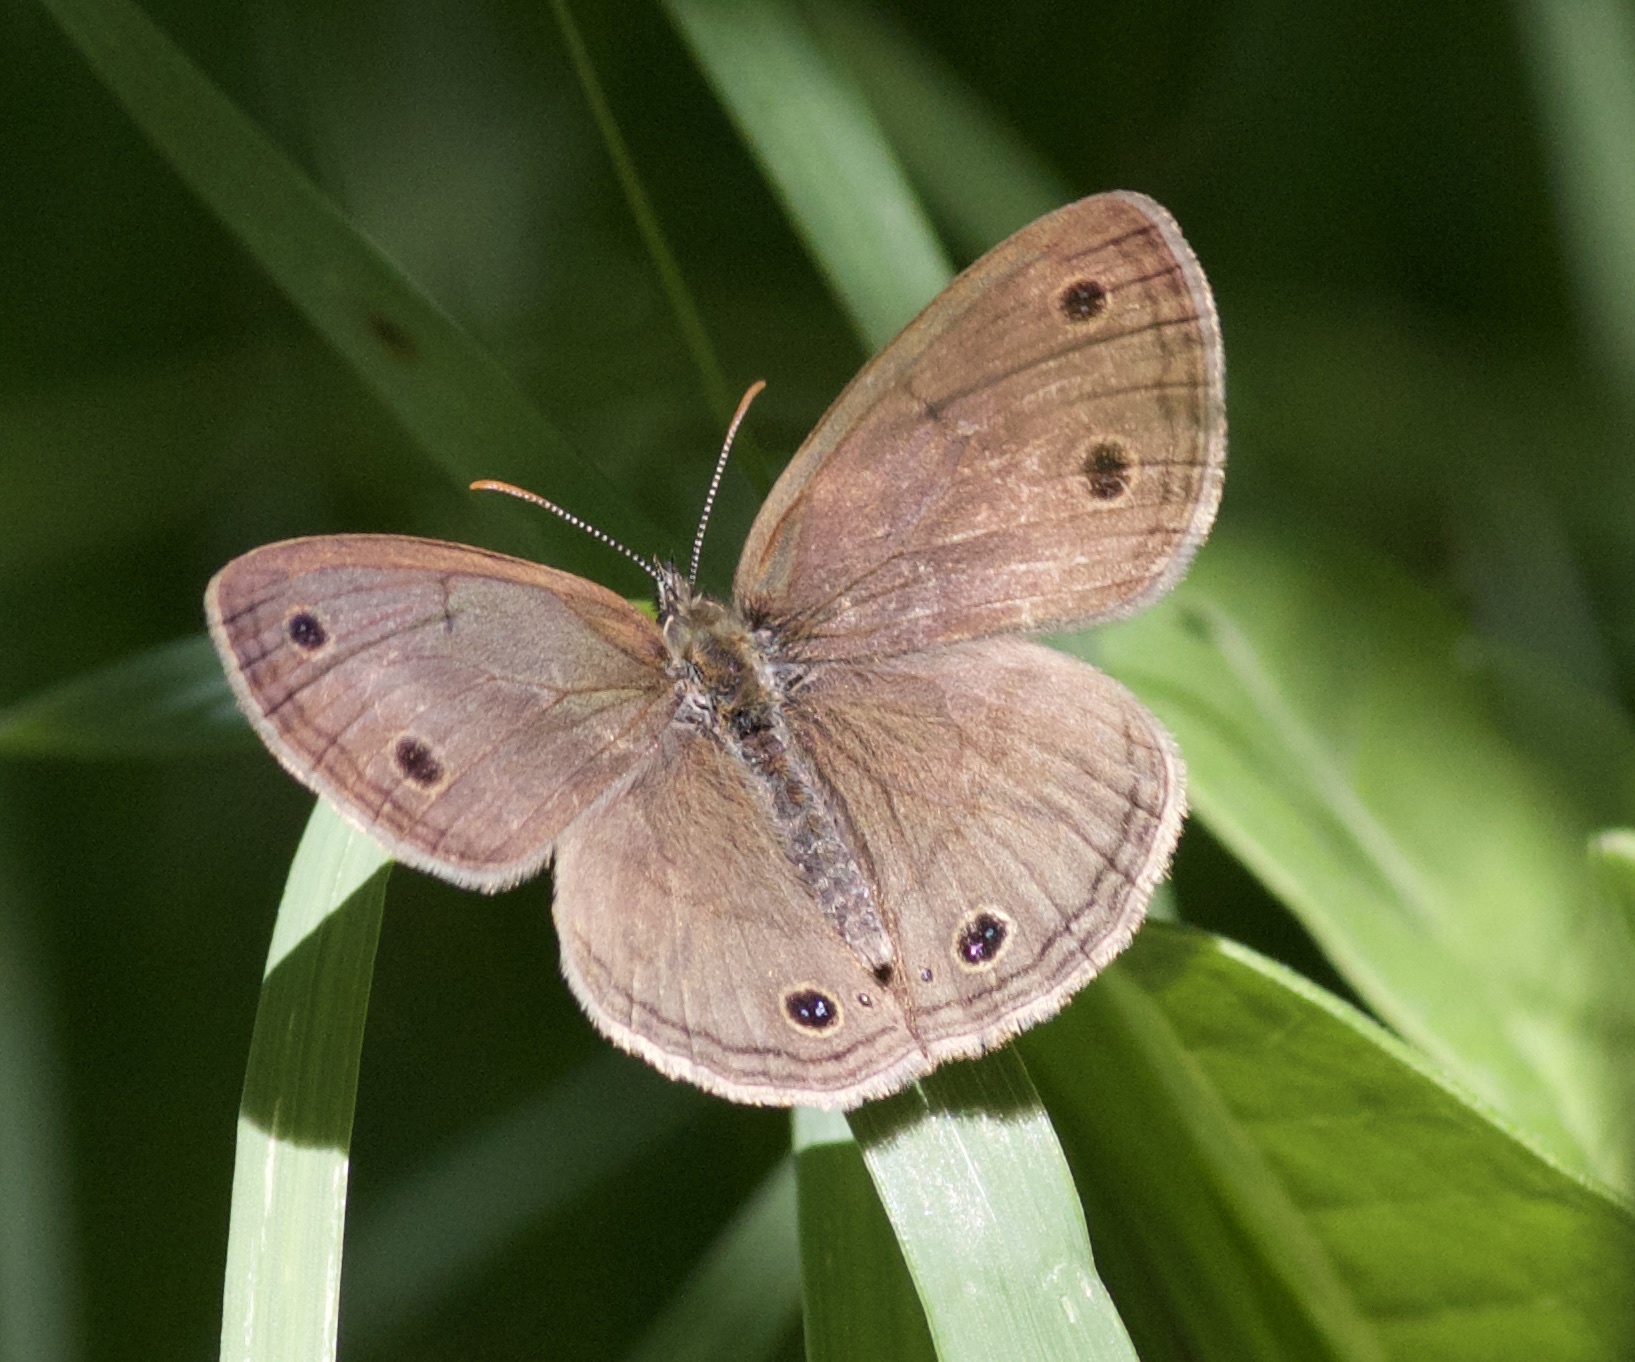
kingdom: Animalia
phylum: Arthropoda
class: Insecta
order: Lepidoptera
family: Nymphalidae
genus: Euptychia
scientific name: Euptychia cymela
